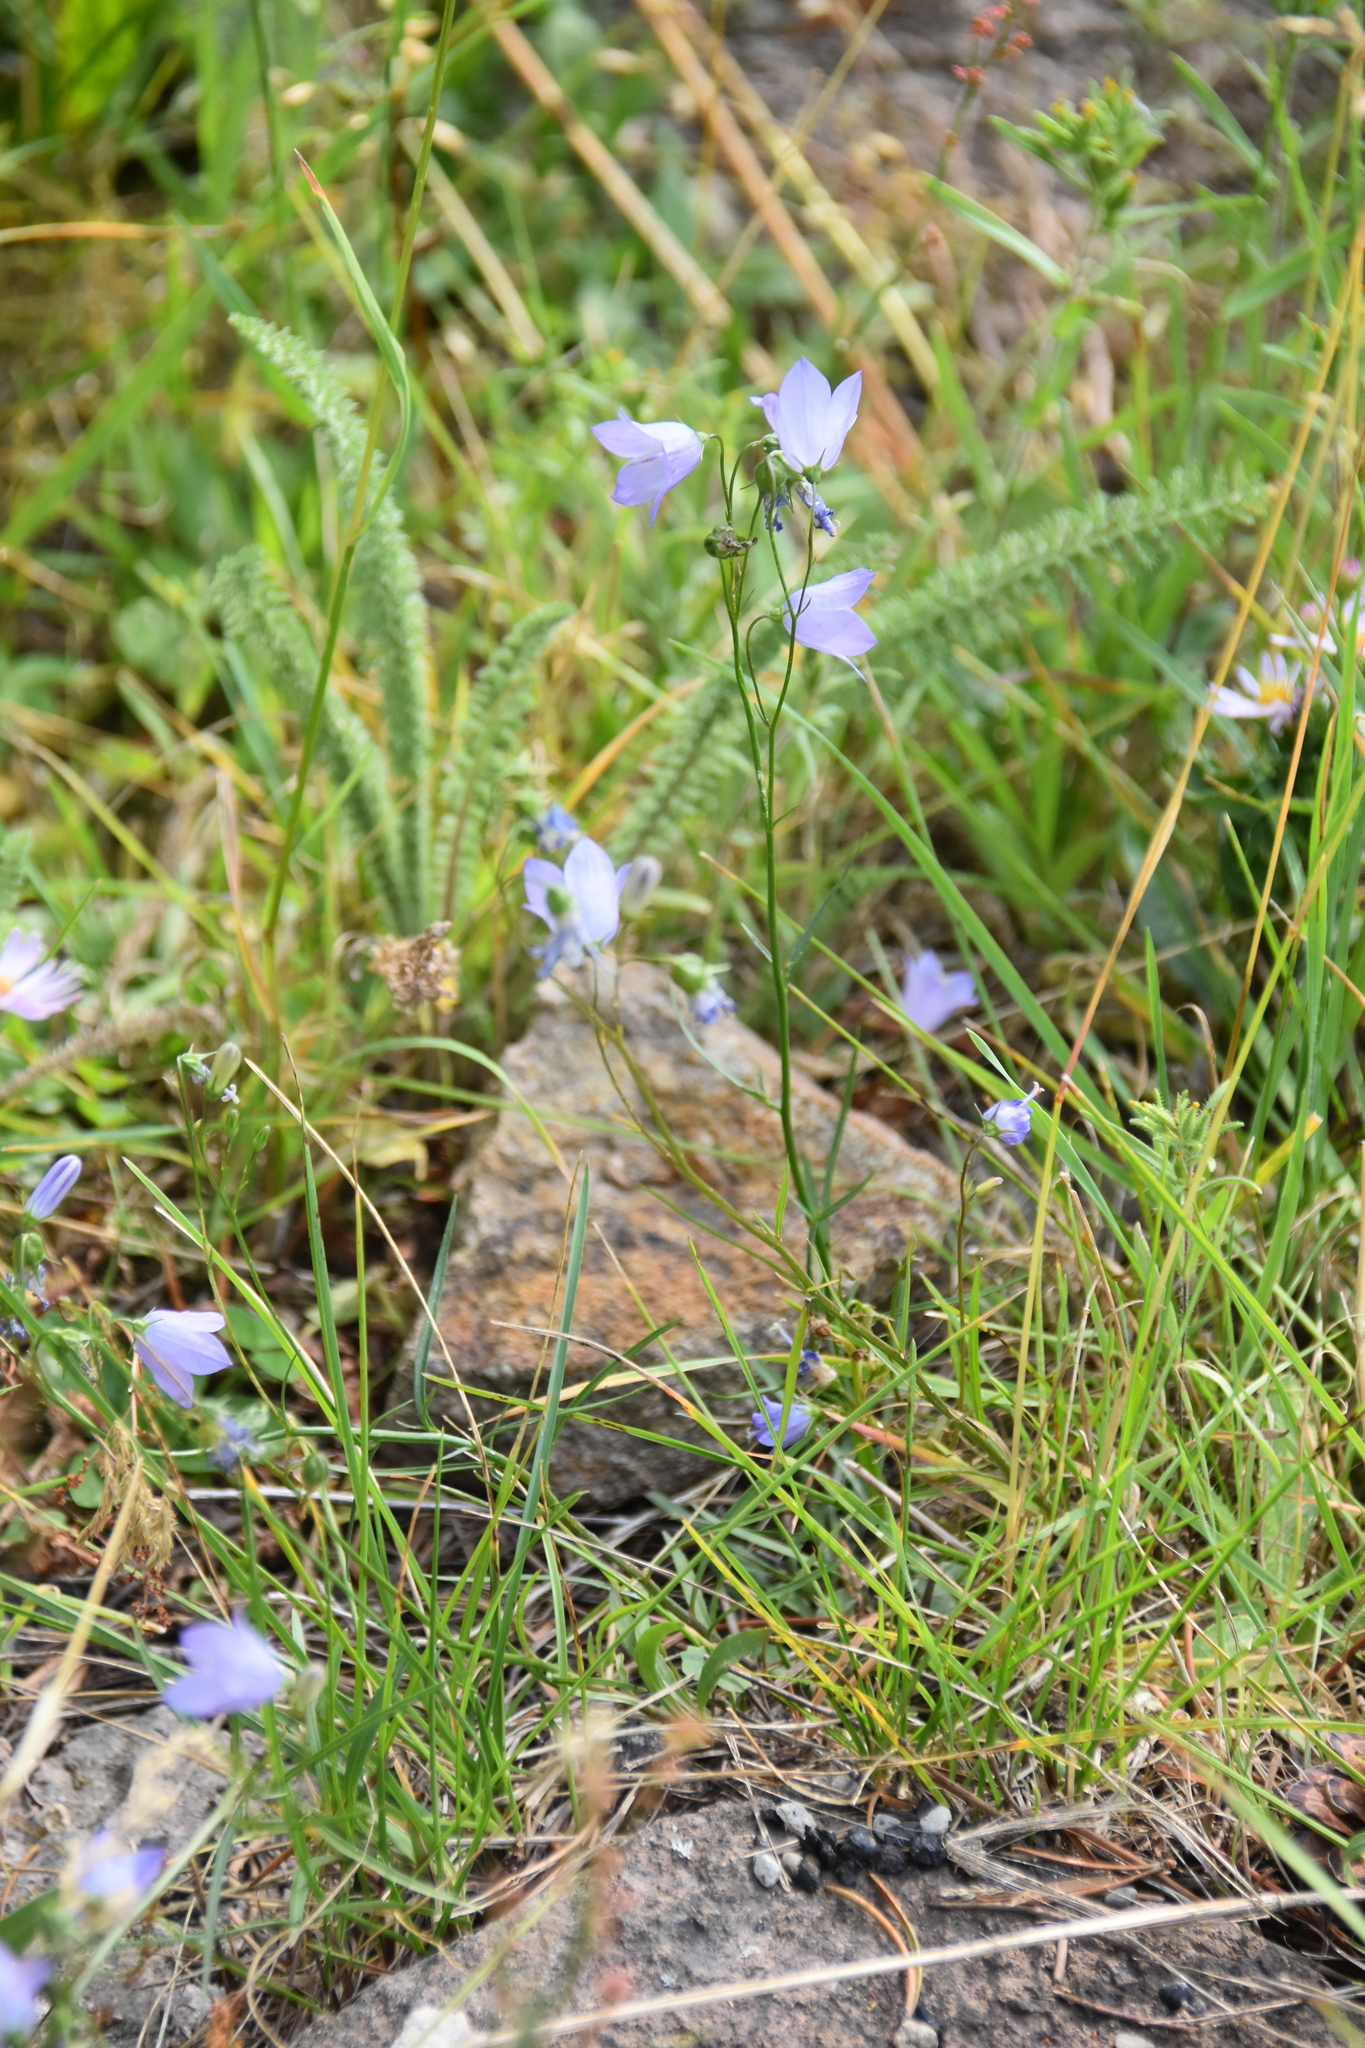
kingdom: Plantae
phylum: Tracheophyta
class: Magnoliopsida
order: Asterales
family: Campanulaceae
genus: Campanula
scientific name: Campanula
